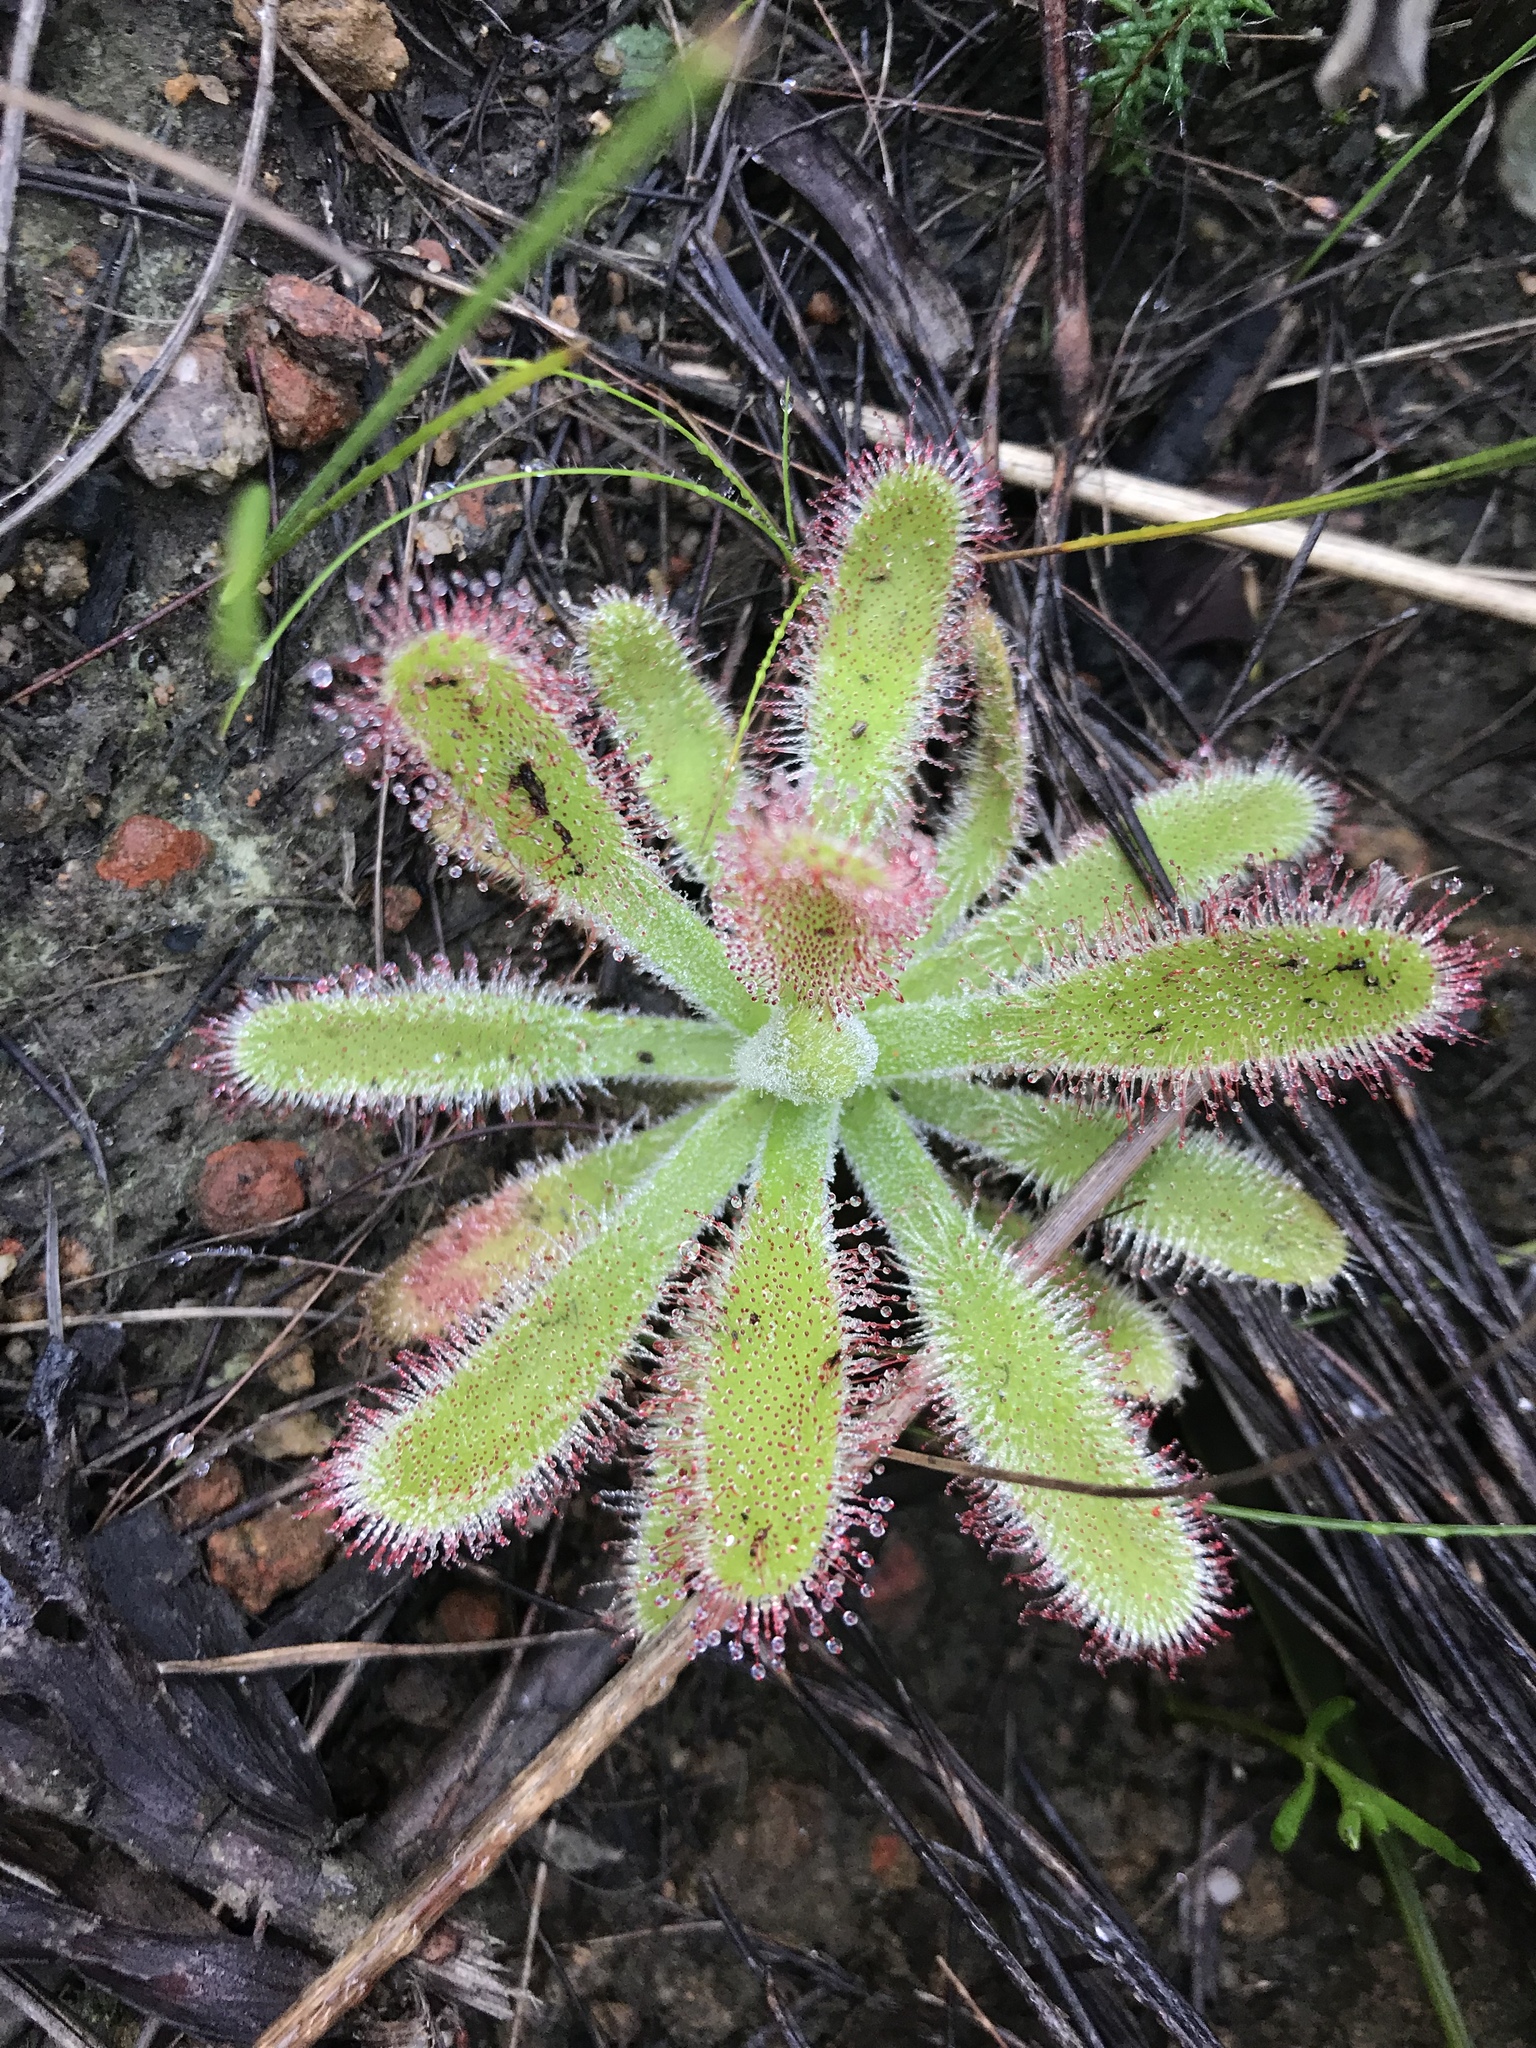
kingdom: Plantae
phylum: Tracheophyta
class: Magnoliopsida
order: Caryophyllales
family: Droseraceae
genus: Drosera
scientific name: Drosera hilaris
